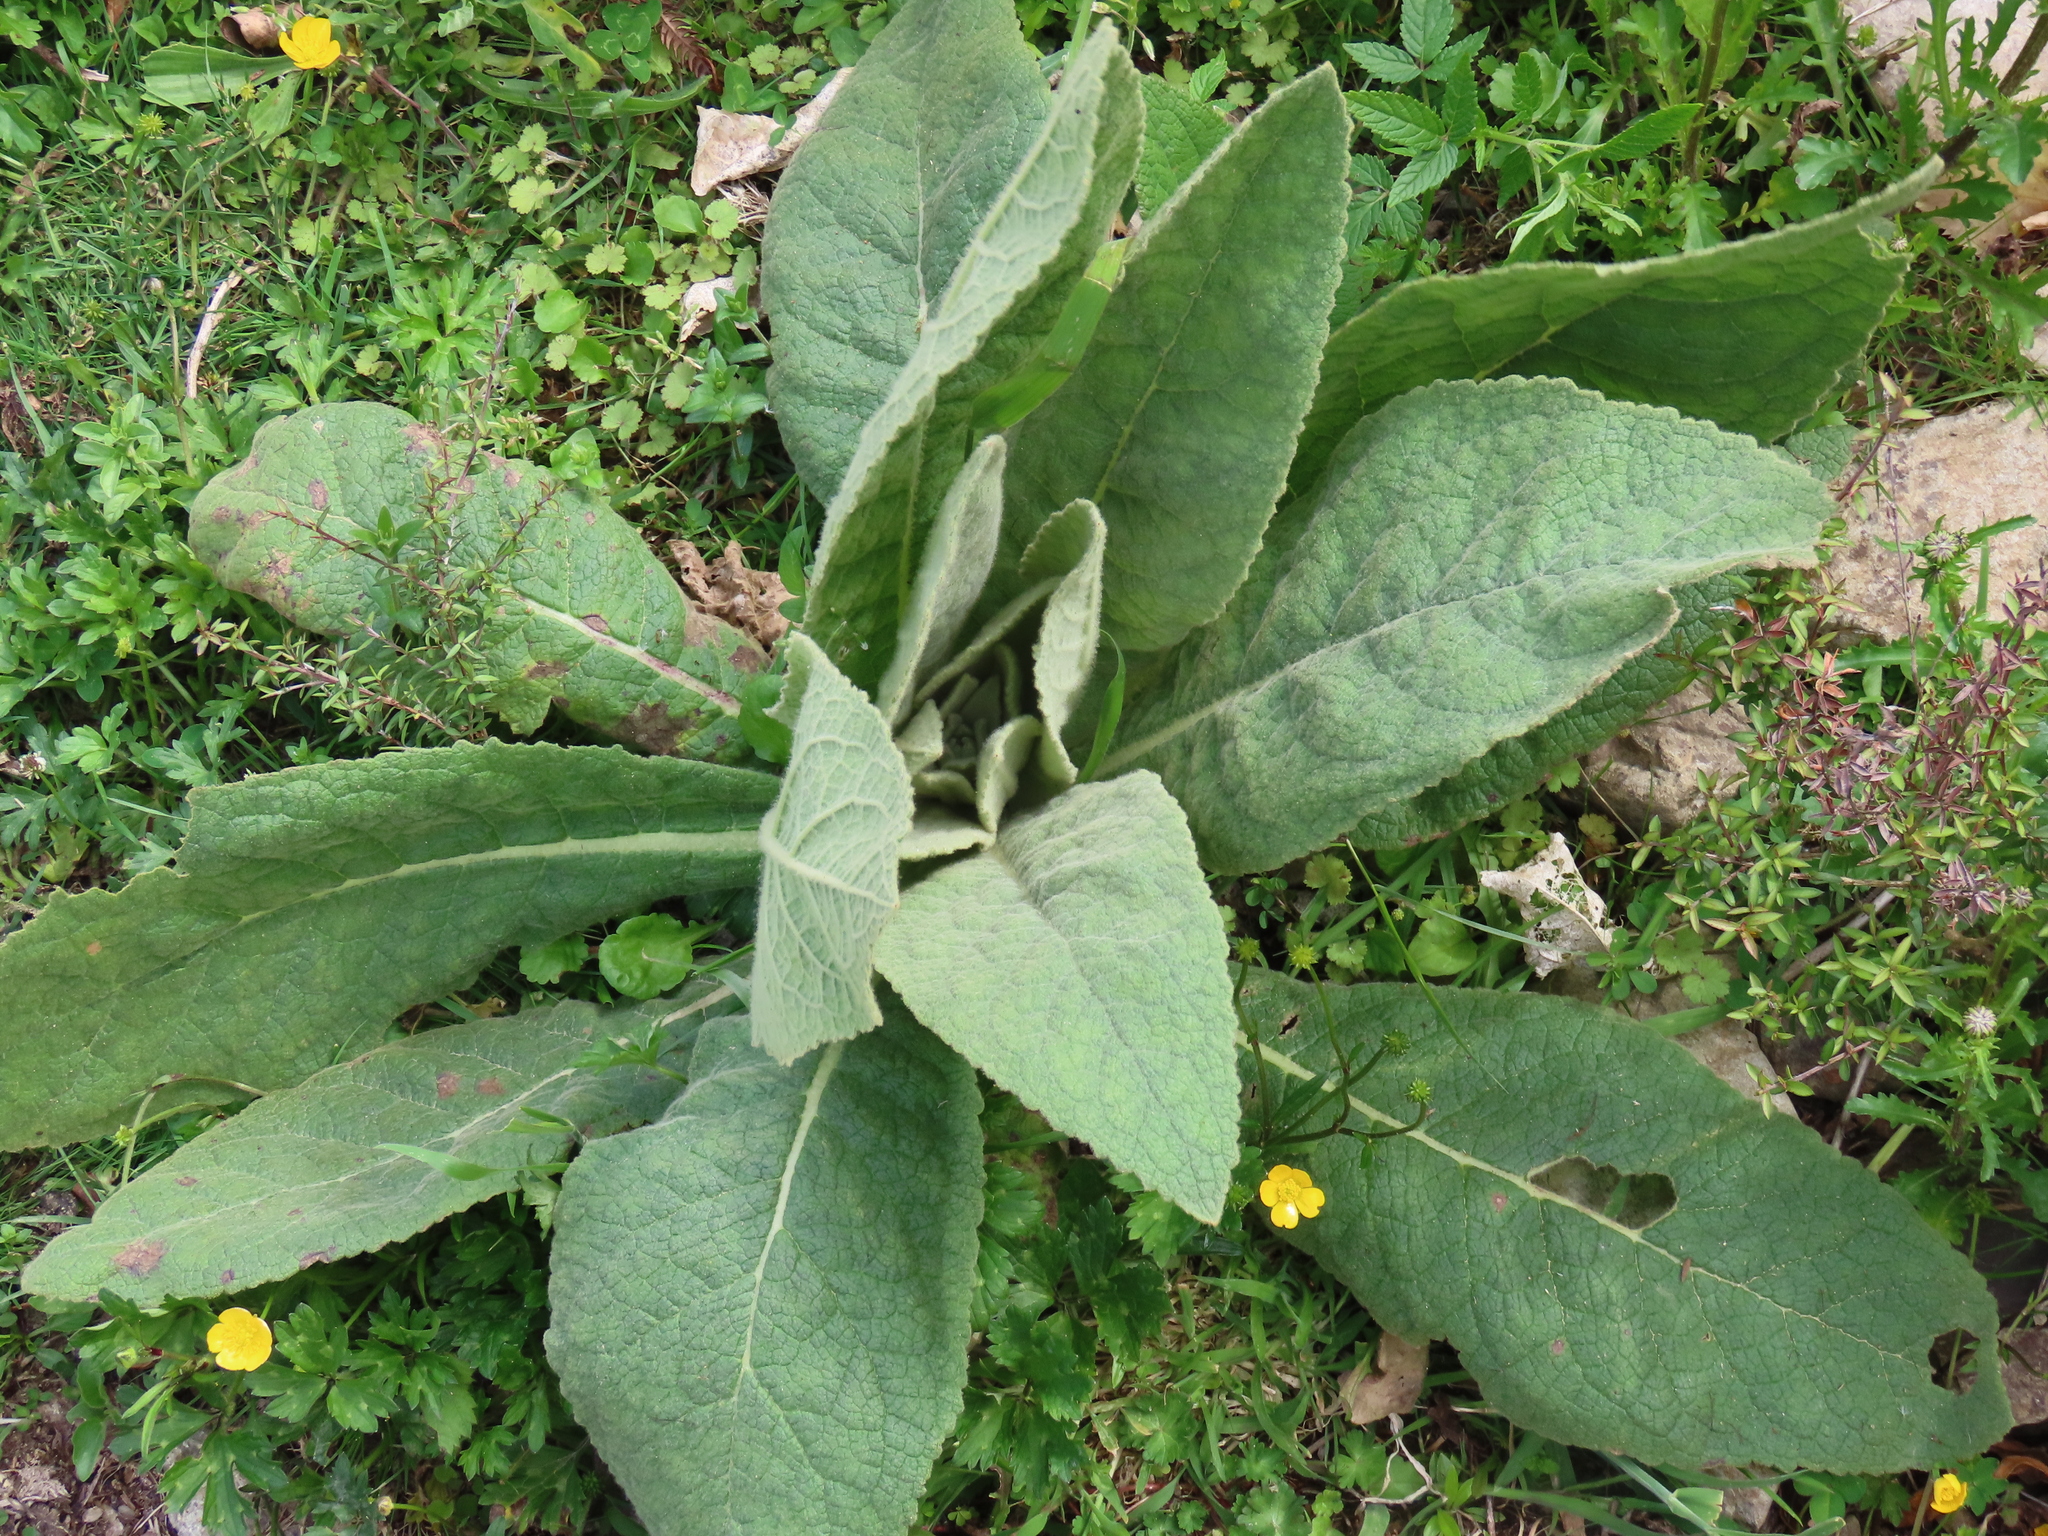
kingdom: Plantae
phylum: Tracheophyta
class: Magnoliopsida
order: Lamiales
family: Scrophulariaceae
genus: Verbascum
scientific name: Verbascum thapsus
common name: Common mullein
